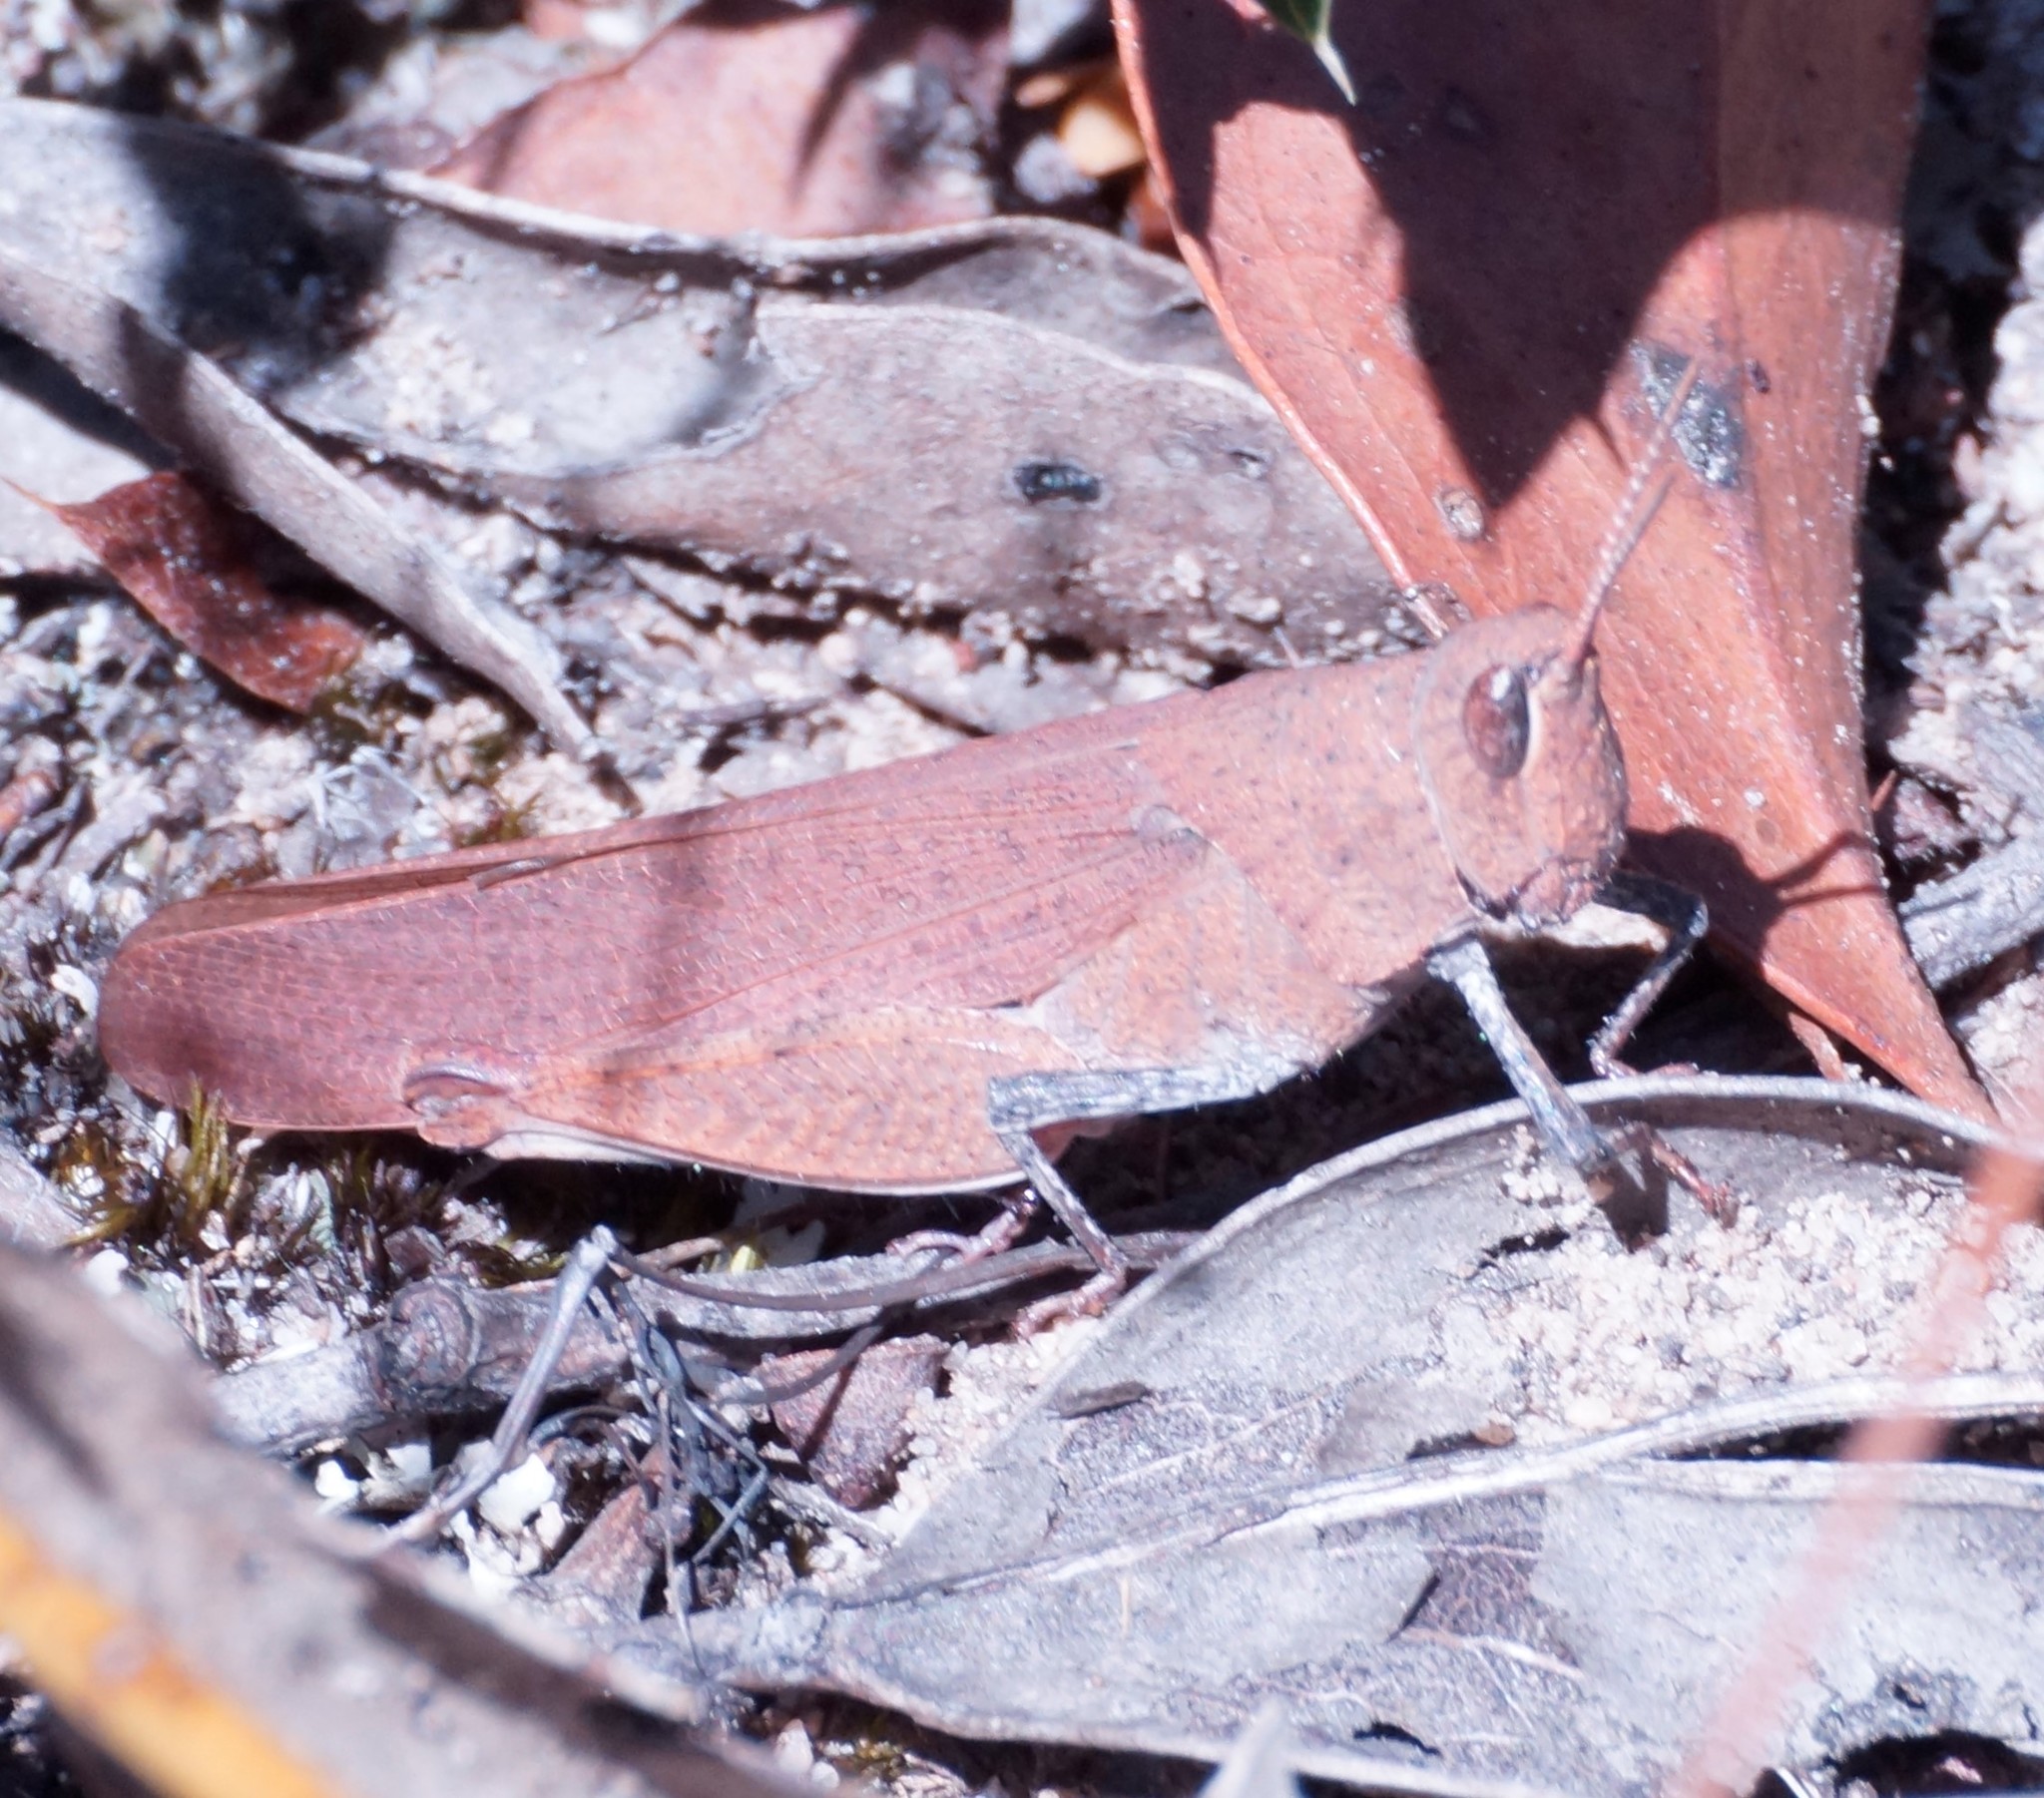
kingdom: Animalia
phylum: Arthropoda
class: Insecta
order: Orthoptera
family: Acrididae
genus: Goniaea
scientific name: Goniaea opomaloides
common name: Mimetic gumleaf grasshopper
